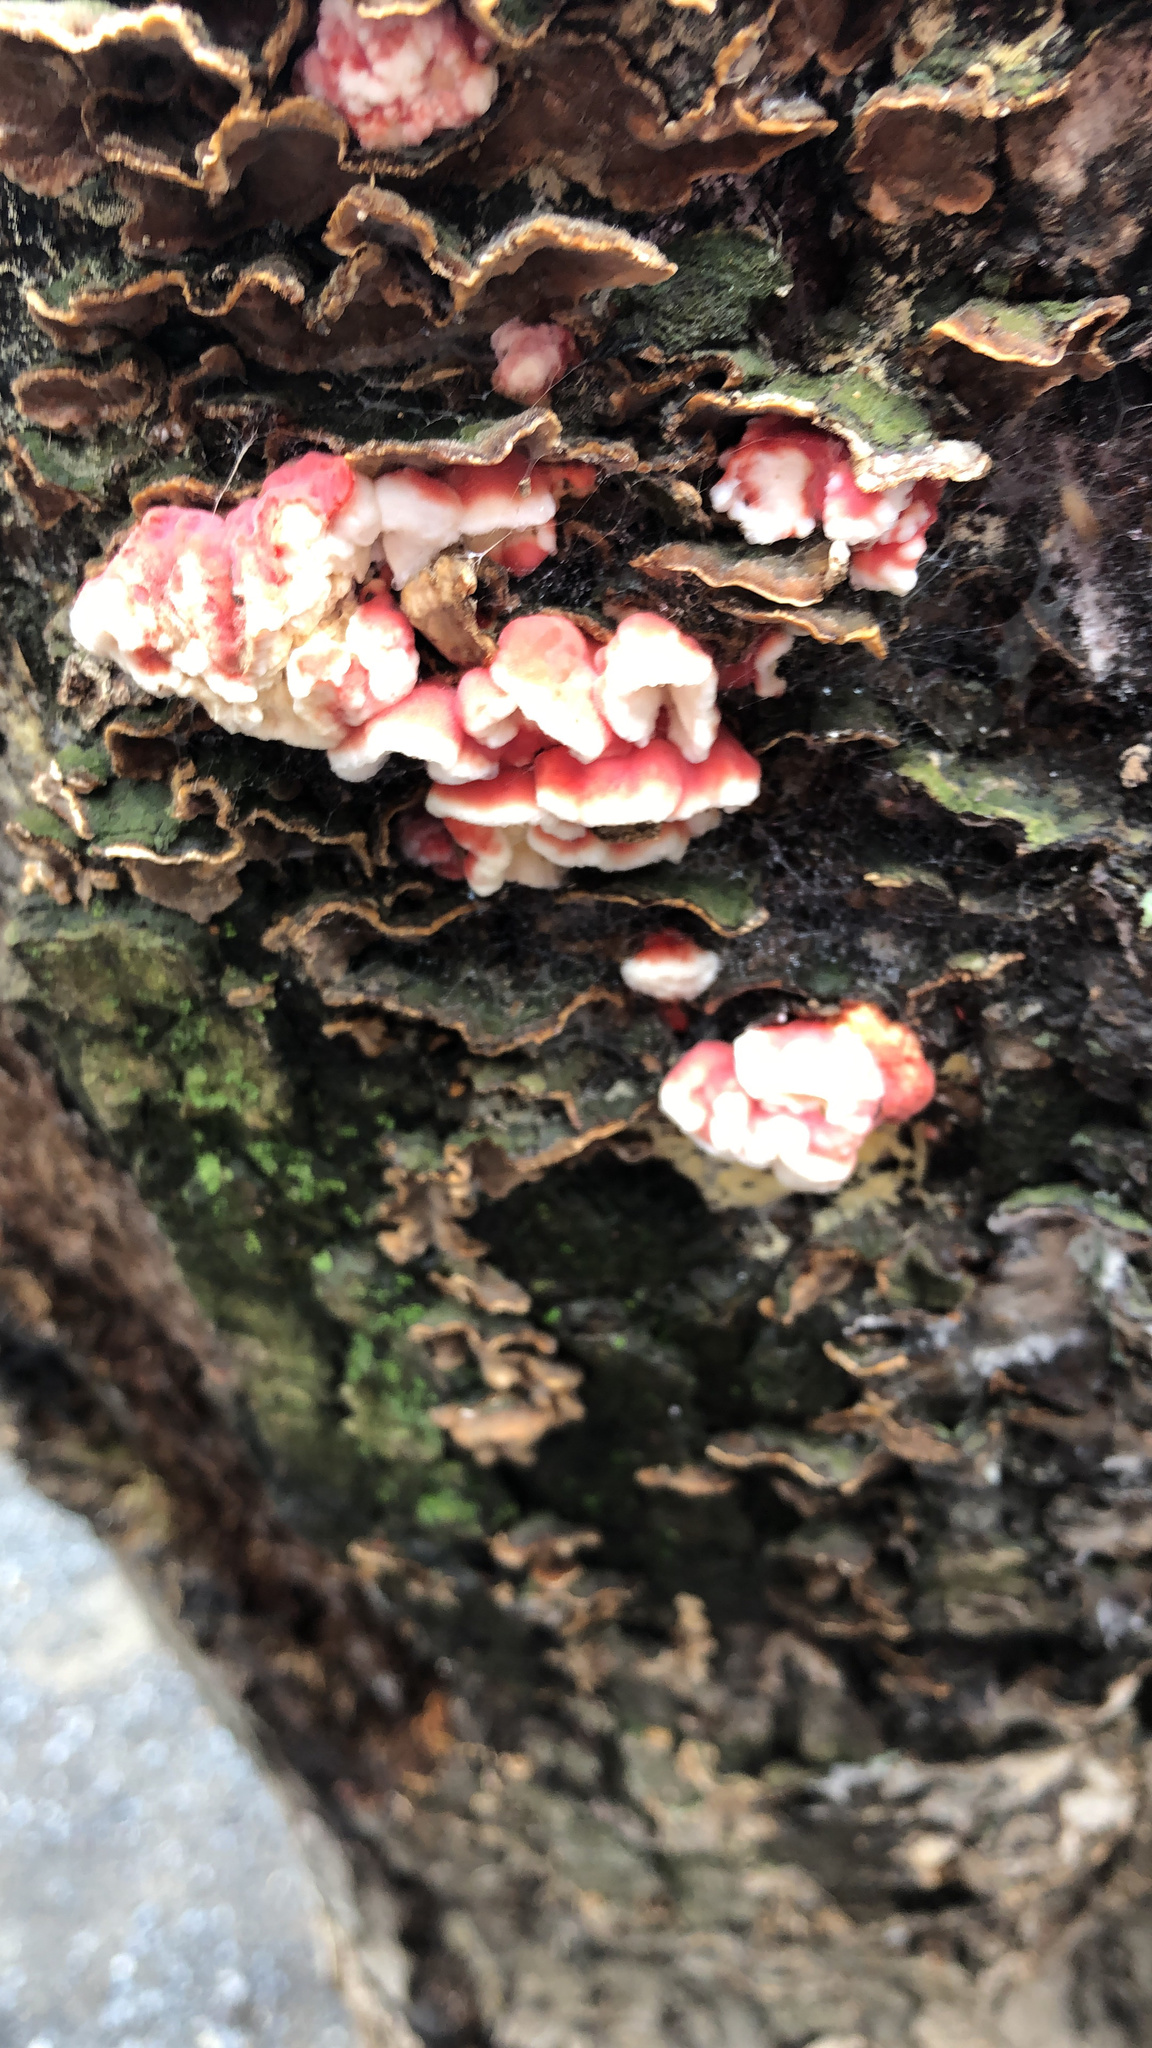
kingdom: Fungi
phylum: Basidiomycota
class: Agaricomycetes
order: Polyporales
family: Irpicaceae
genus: Byssomerulius
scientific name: Byssomerulius incarnatus
